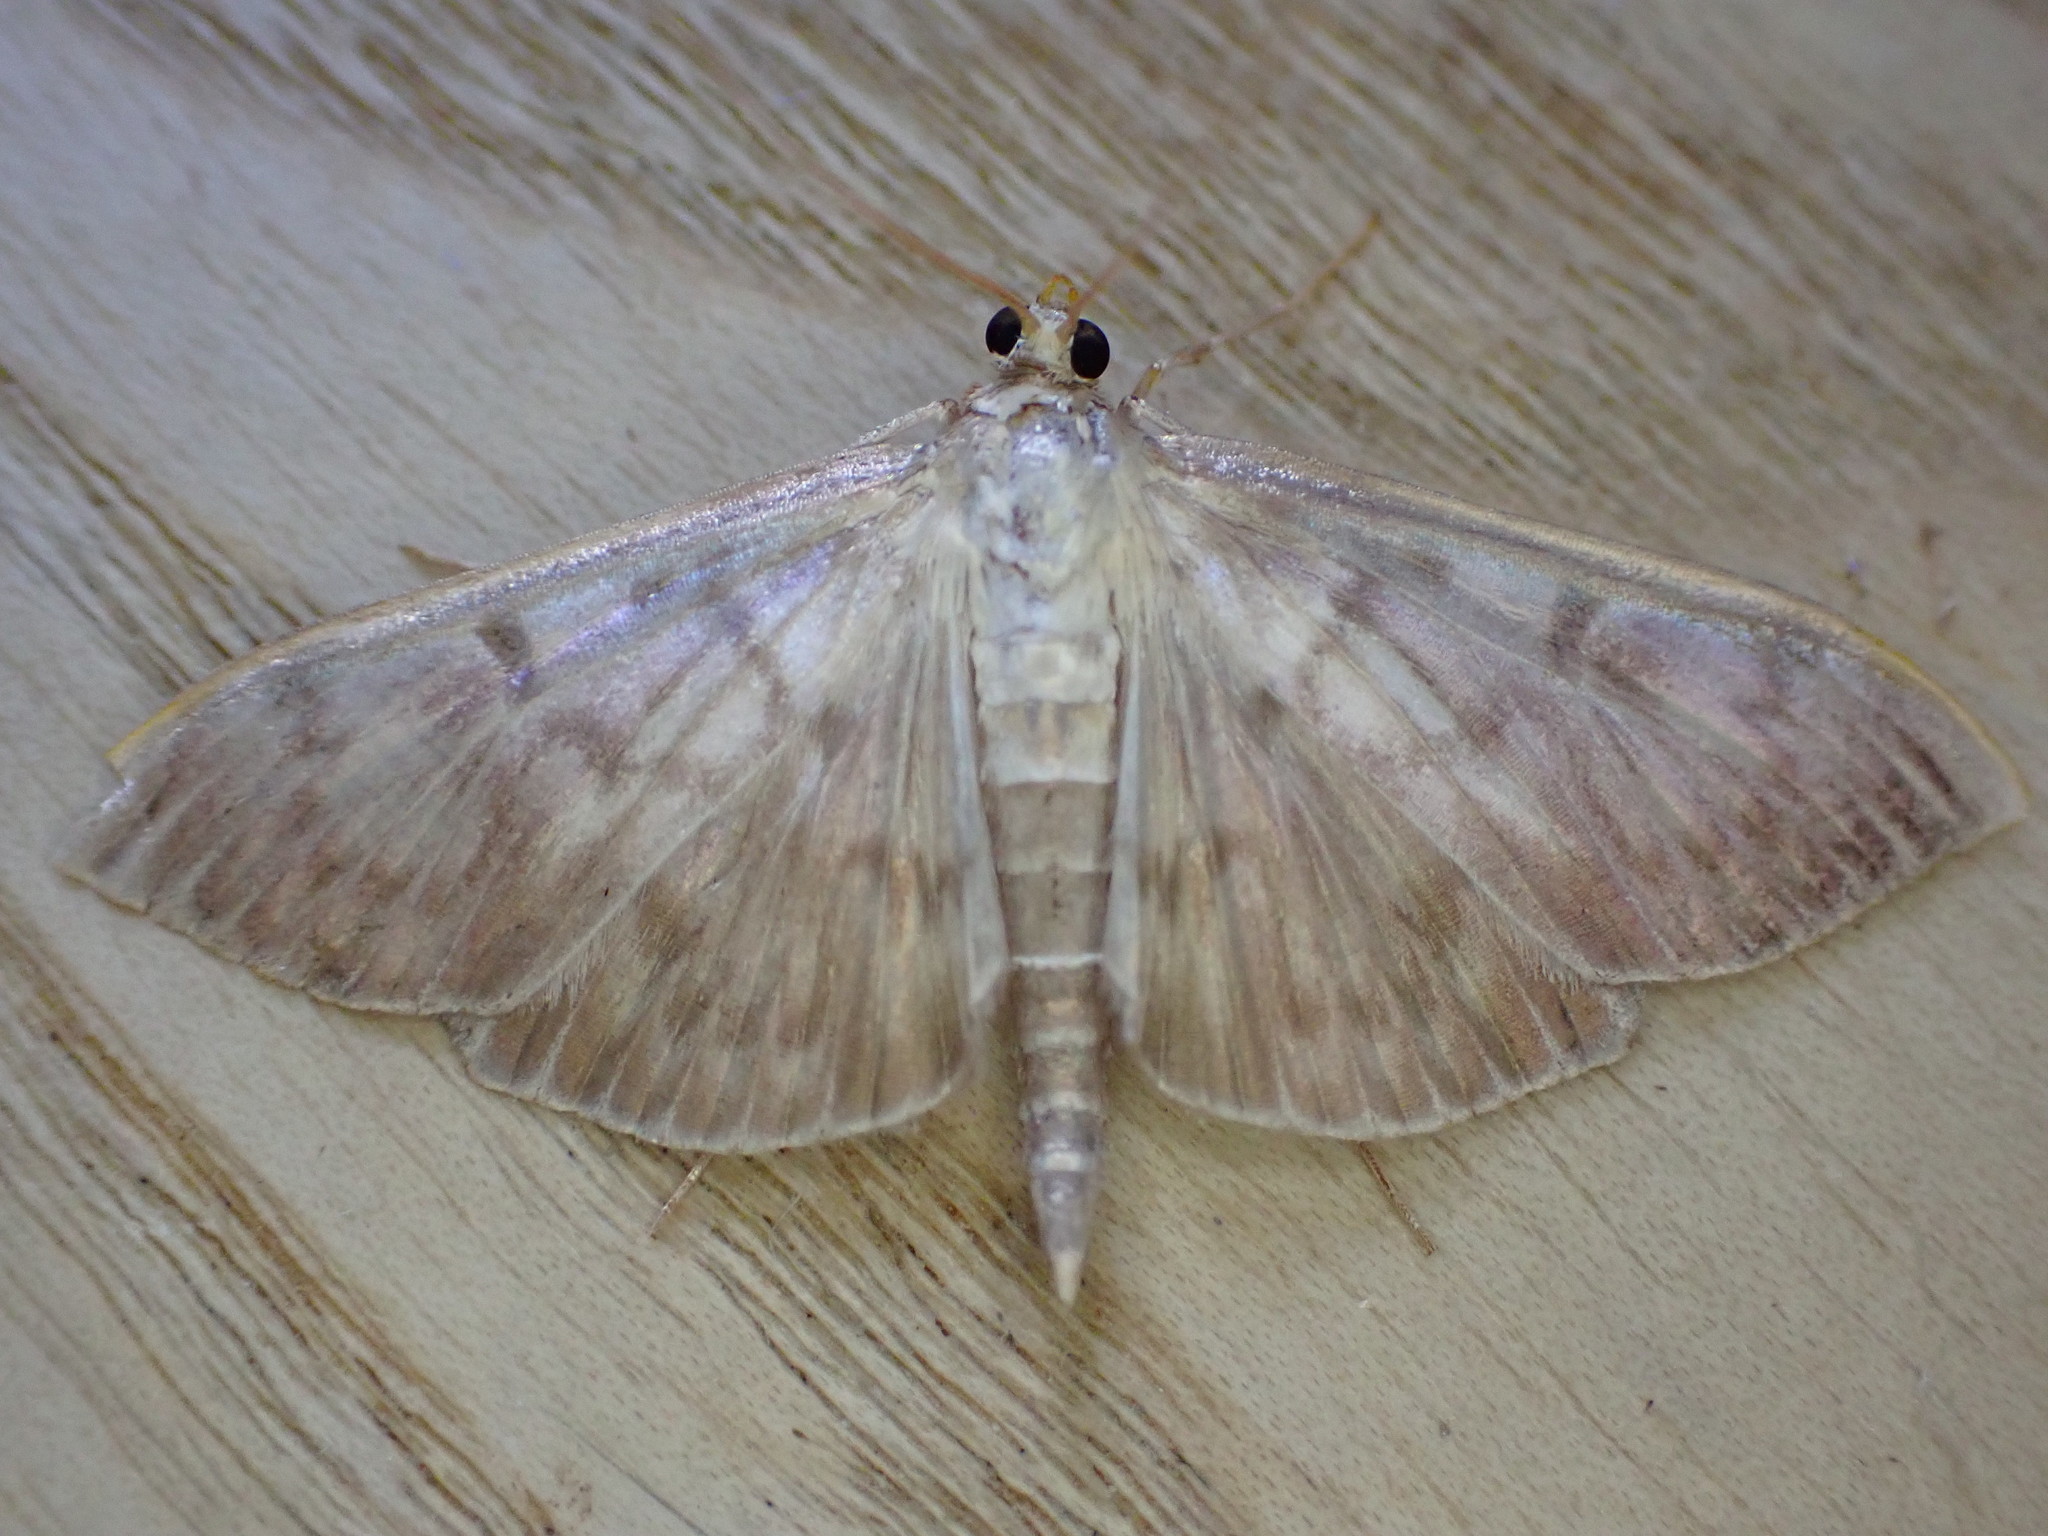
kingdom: Animalia
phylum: Arthropoda
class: Insecta
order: Lepidoptera
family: Crambidae
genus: Patania
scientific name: Patania ruralis
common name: Mother of pearl
